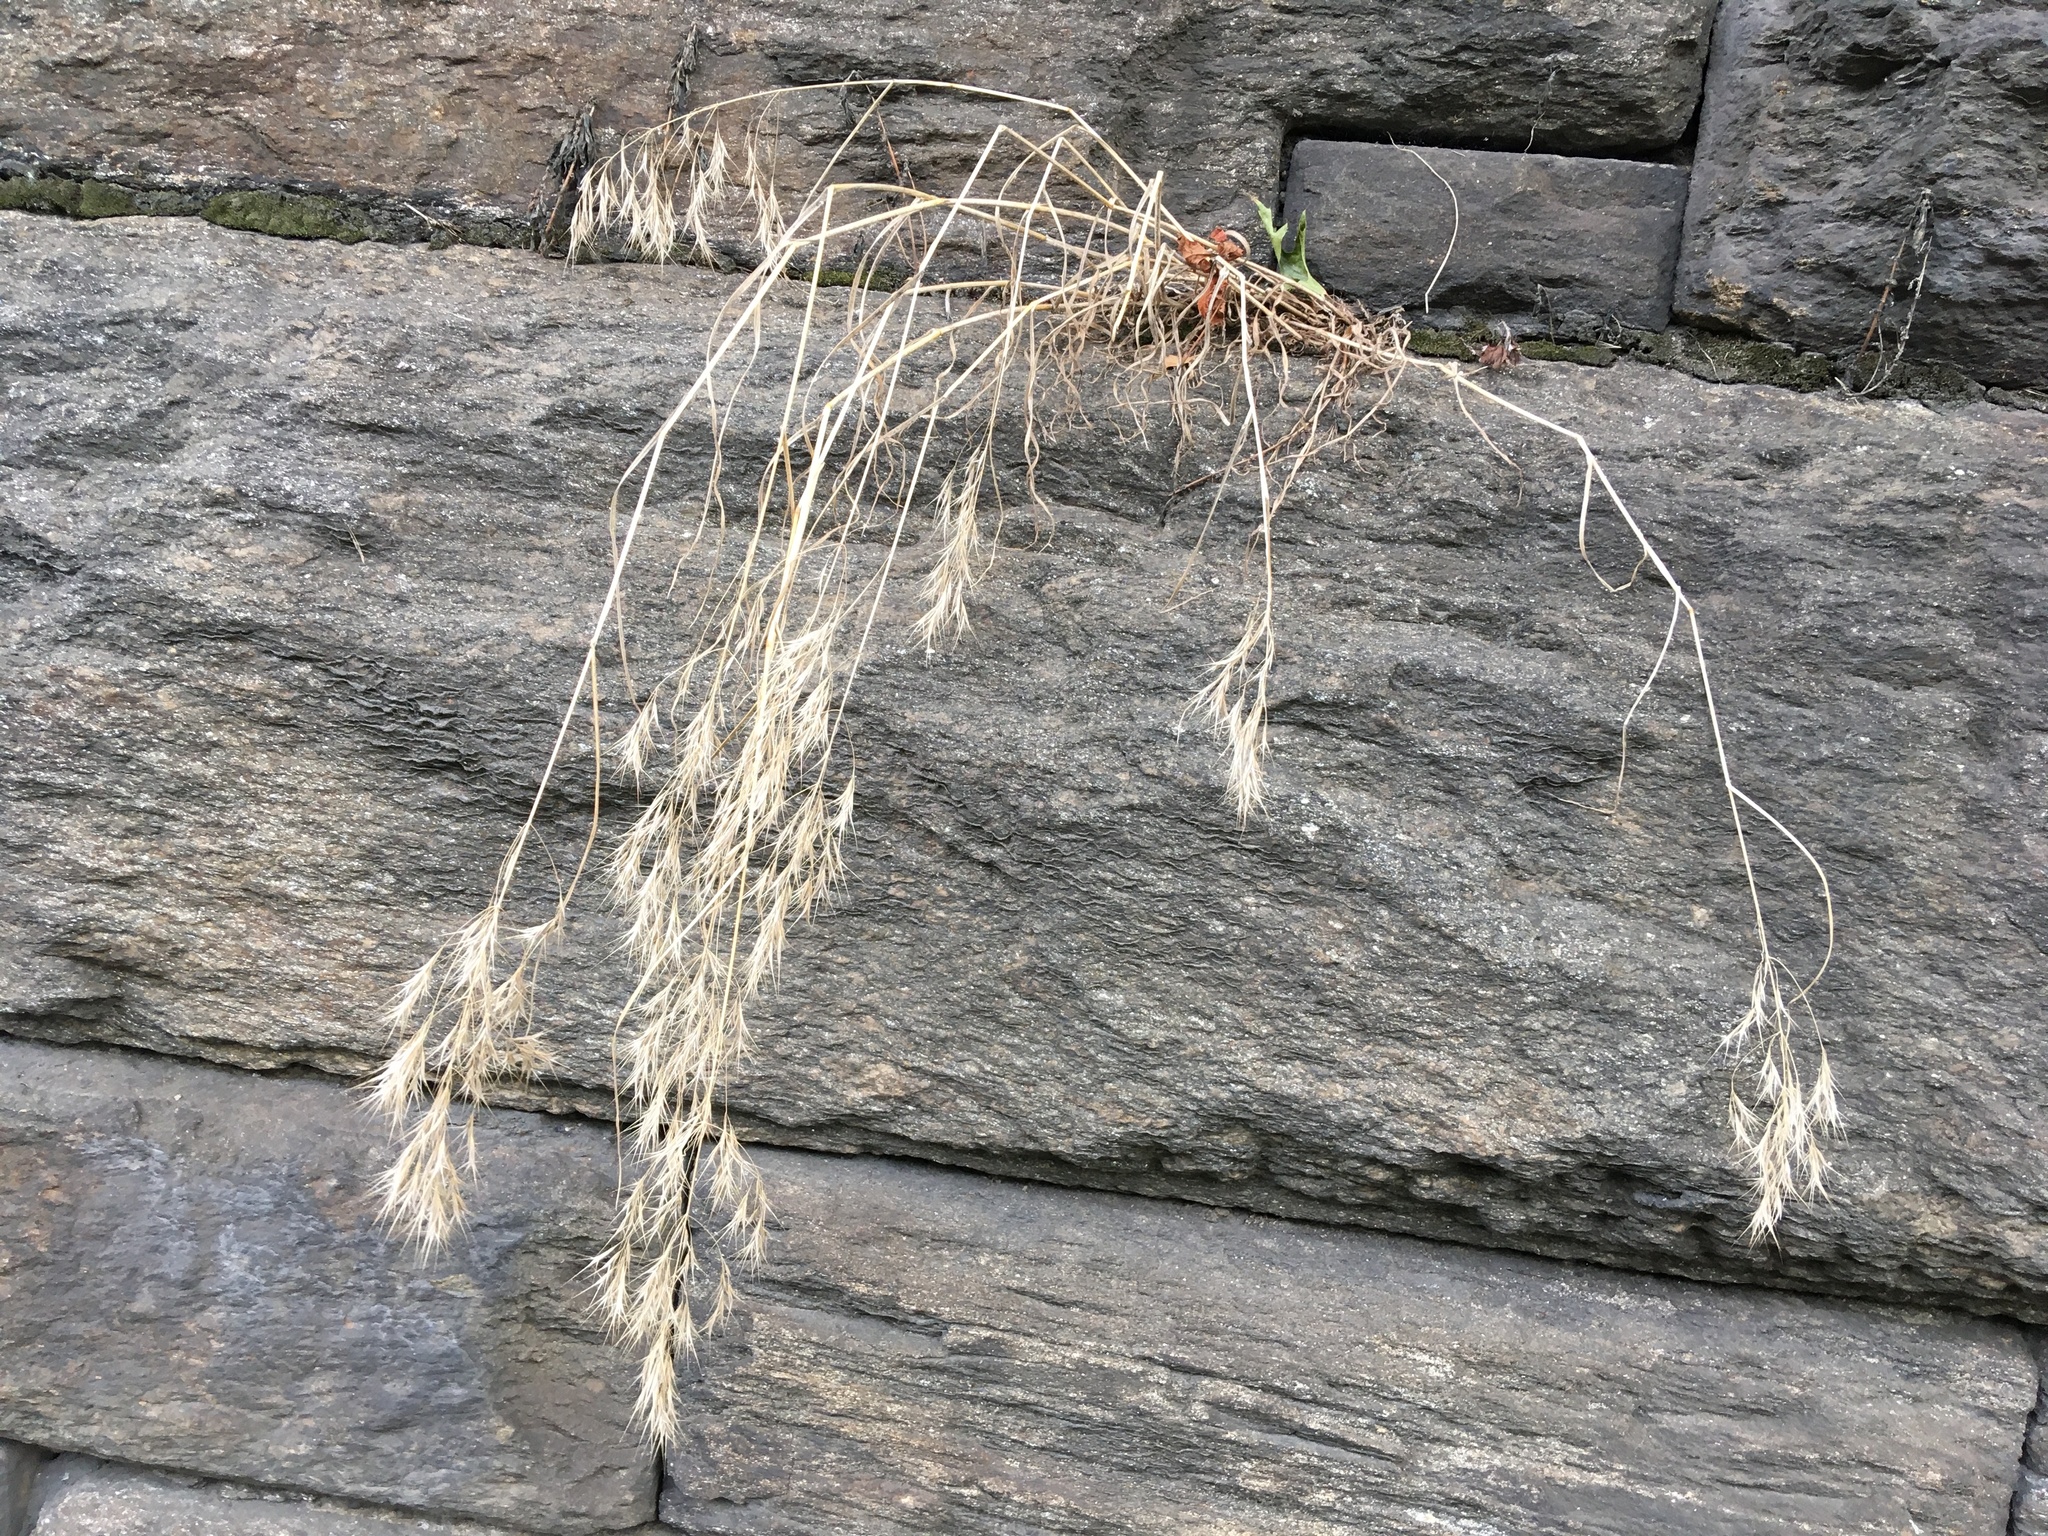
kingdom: Plantae
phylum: Tracheophyta
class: Liliopsida
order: Poales
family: Poaceae
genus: Bromus
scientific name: Bromus tectorum
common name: Cheatgrass
